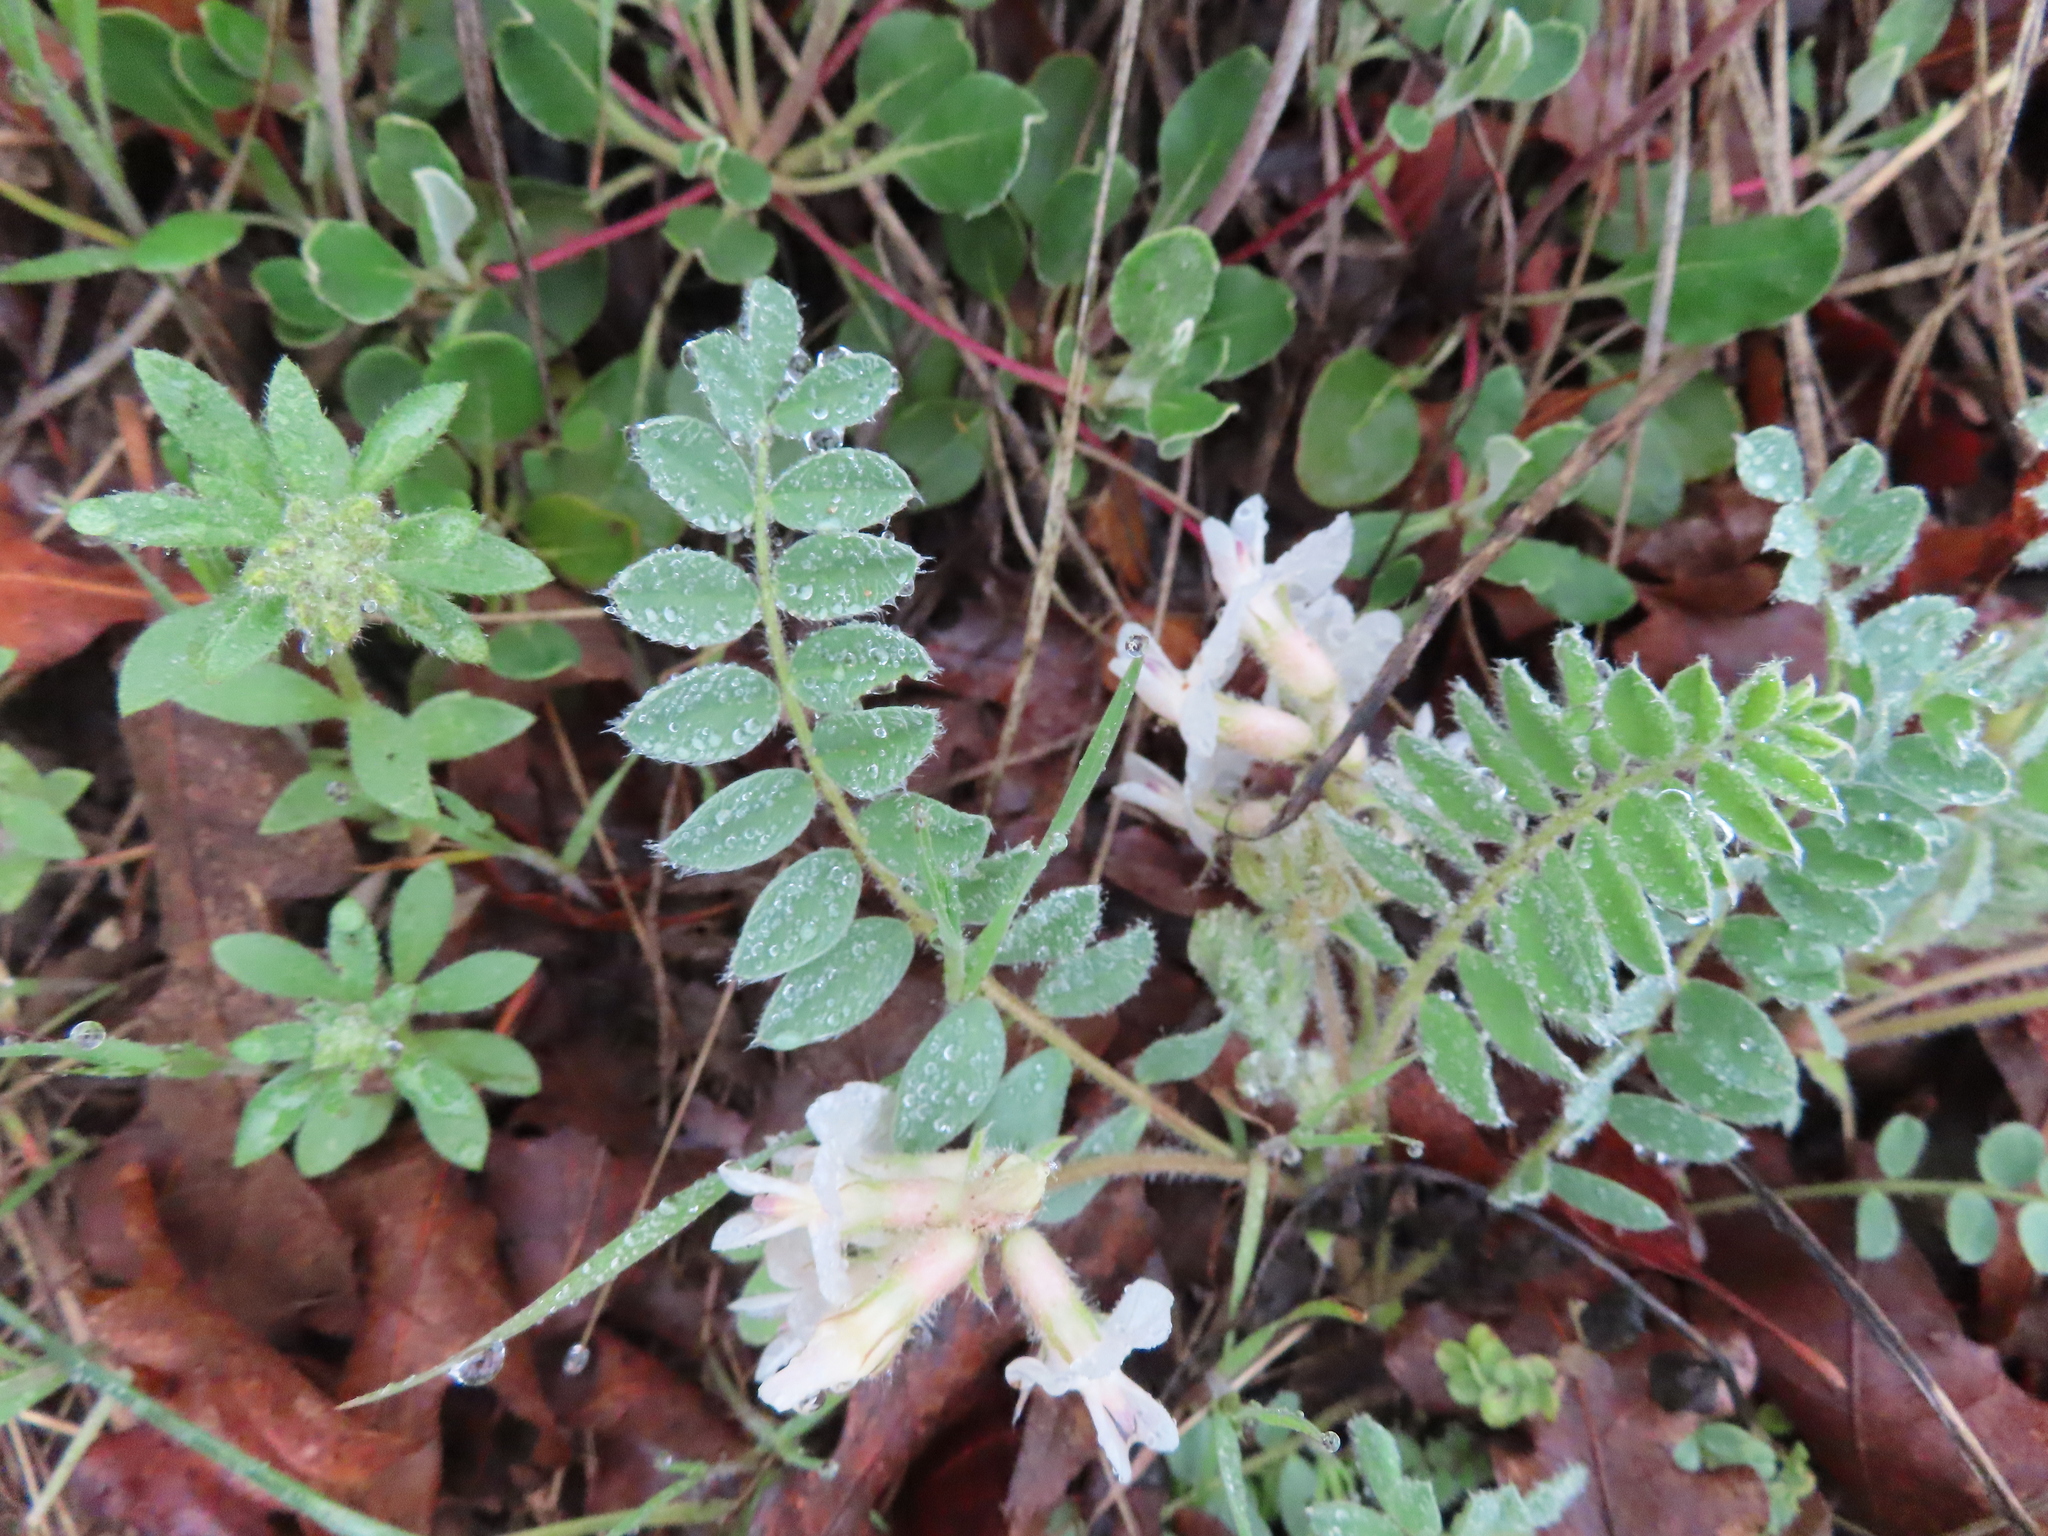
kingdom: Plantae
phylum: Tracheophyta
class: Magnoliopsida
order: Fabales
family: Fabaceae
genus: Astragalus
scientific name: Astragalus parryi
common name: Parry milk-vetch
